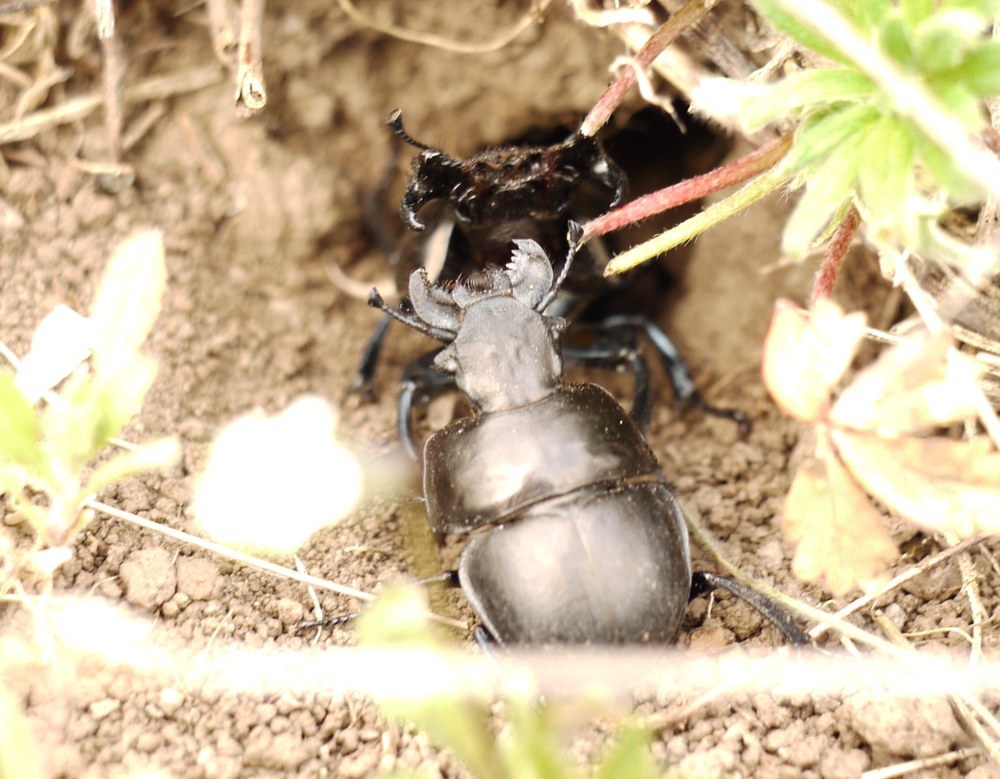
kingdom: Animalia
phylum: Arthropoda
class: Insecta
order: Coleoptera
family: Geotrupidae
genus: Lethrus
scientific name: Lethrus apterus
